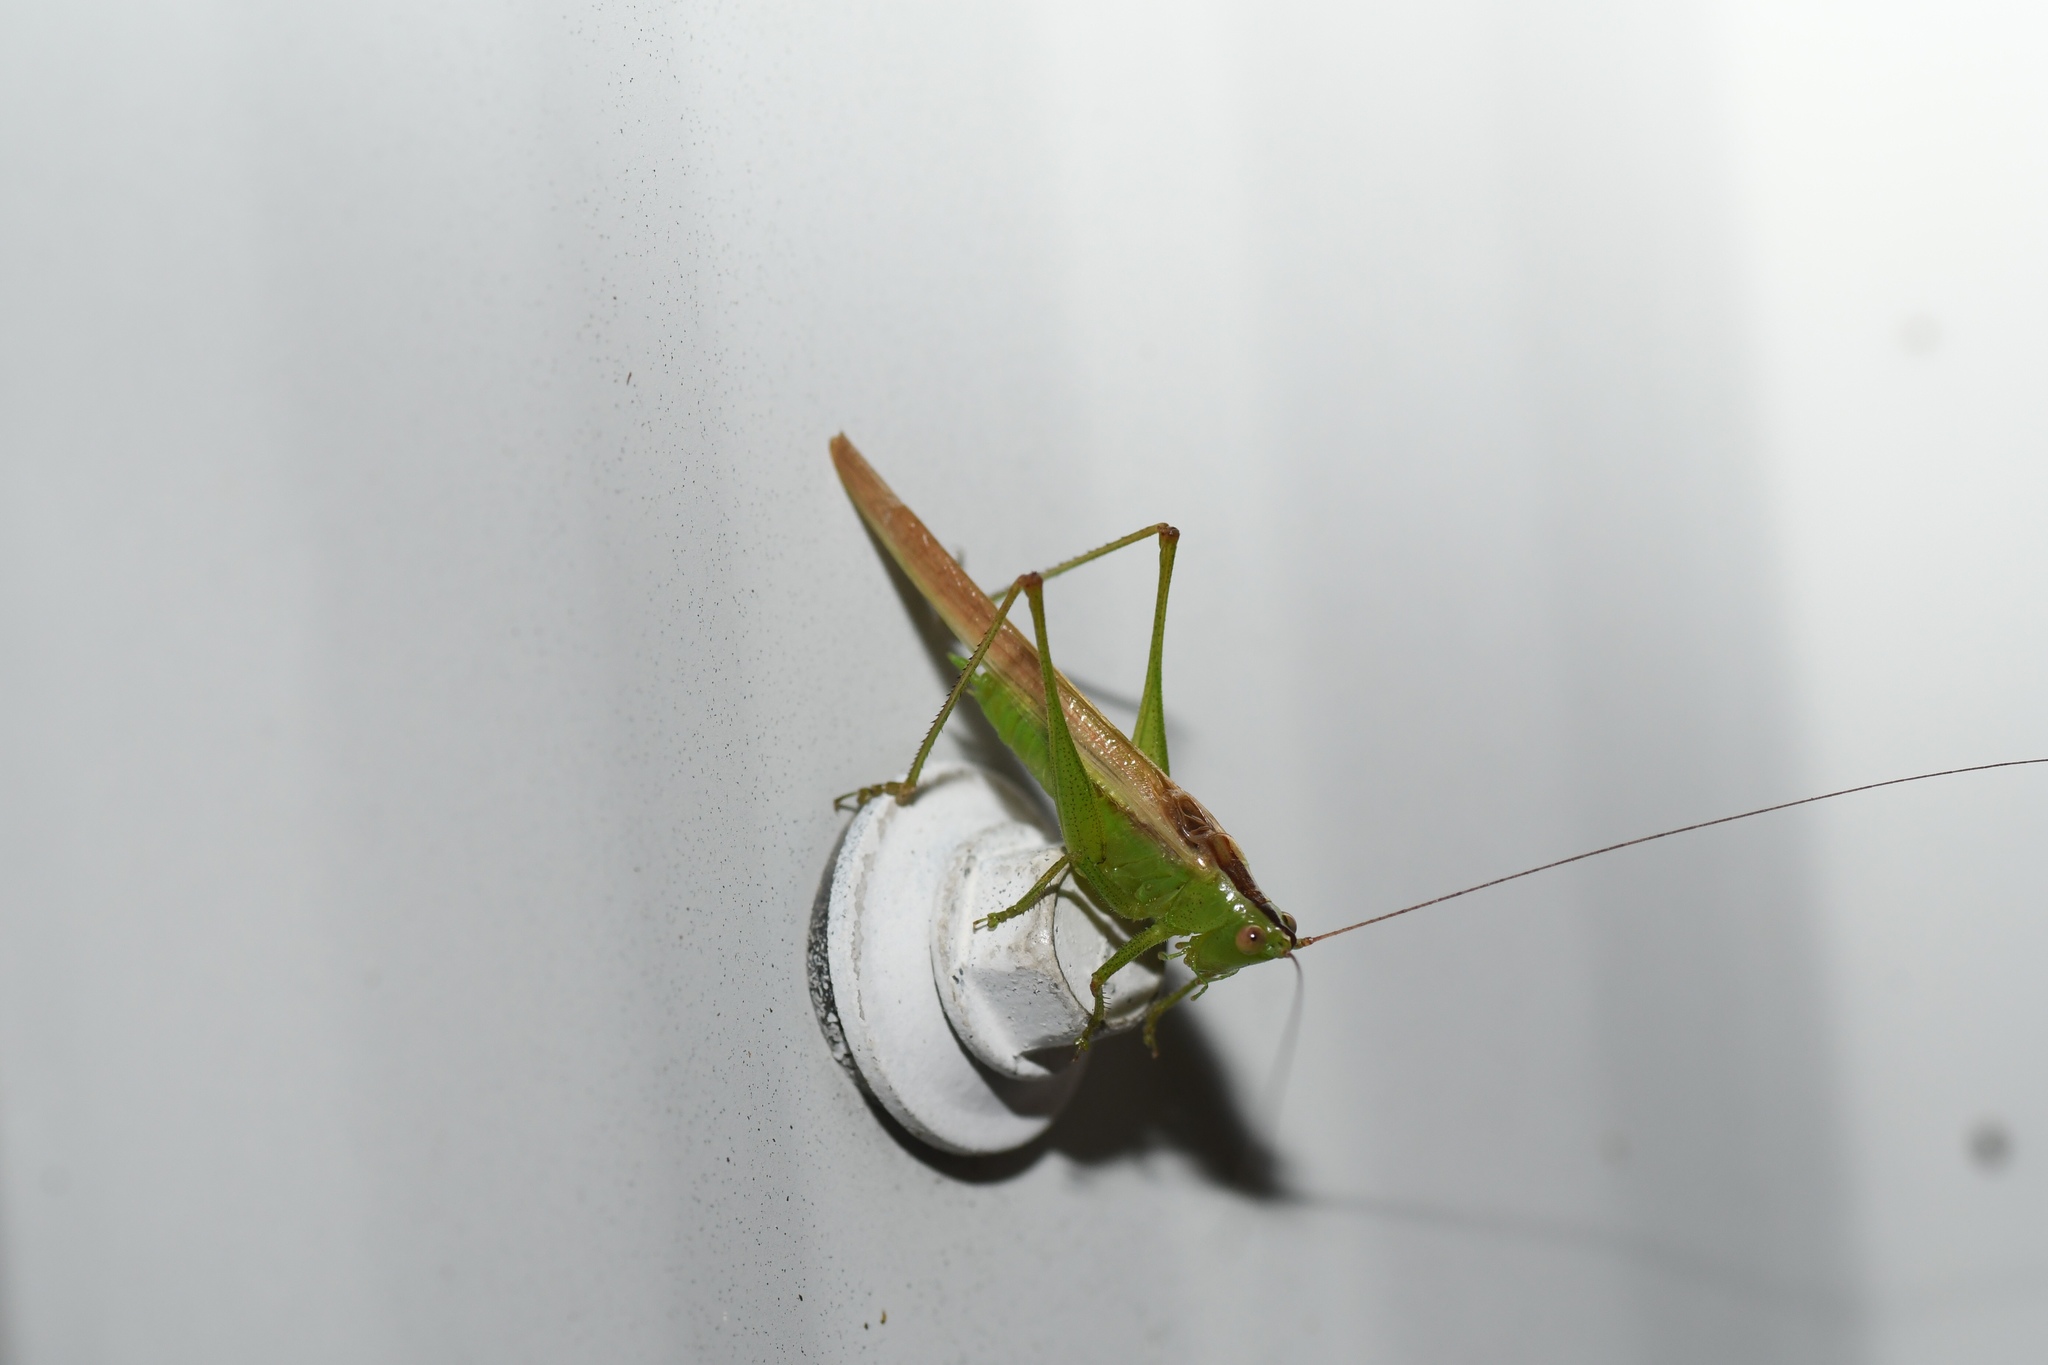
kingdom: Animalia
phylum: Arthropoda
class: Insecta
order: Orthoptera
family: Tettigoniidae
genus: Conocephalus
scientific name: Conocephalus fasciatus
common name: Slender meadow katydid
